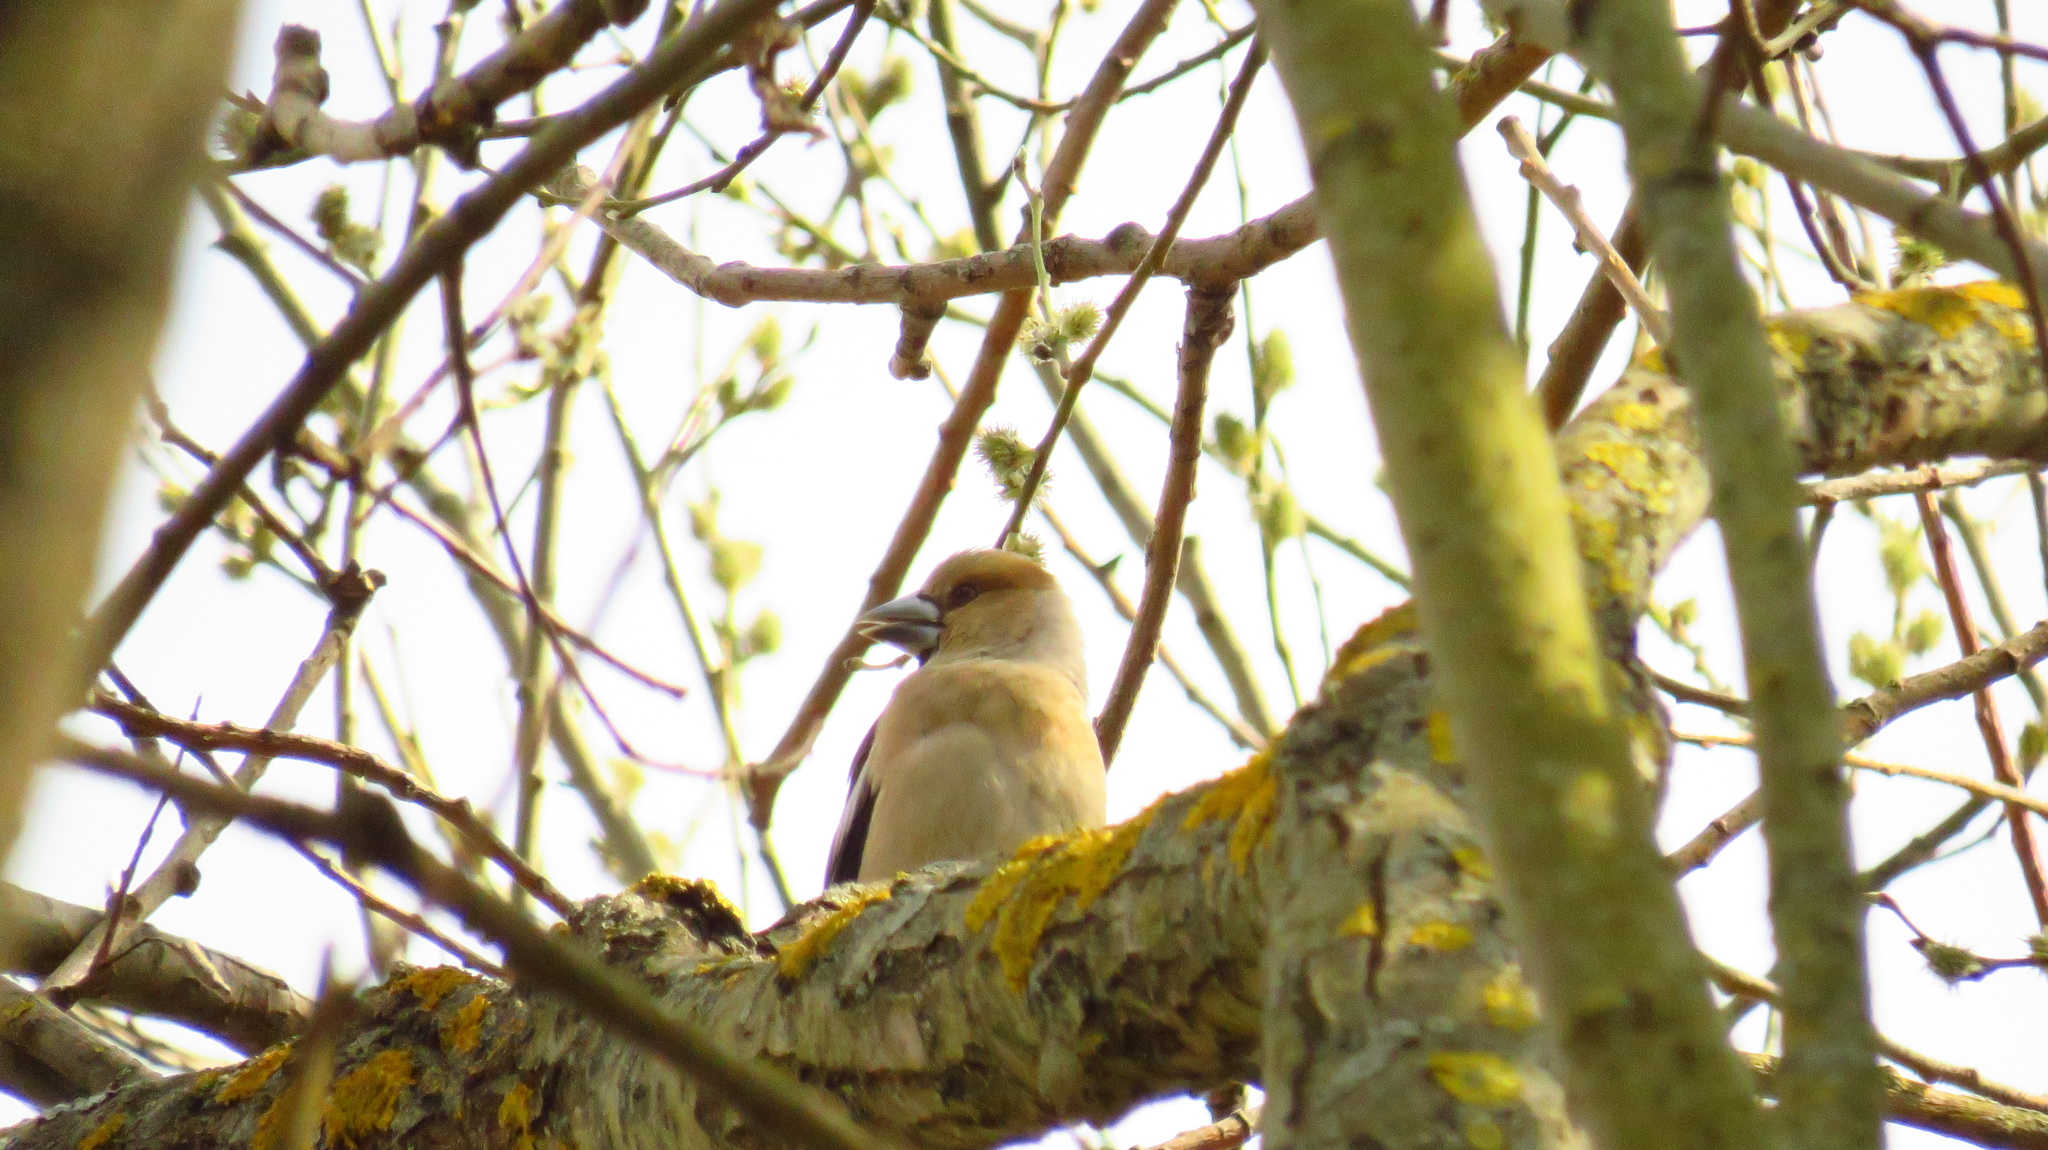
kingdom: Animalia
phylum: Chordata
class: Aves
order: Passeriformes
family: Fringillidae
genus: Coccothraustes
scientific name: Coccothraustes coccothraustes
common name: Hawfinch
